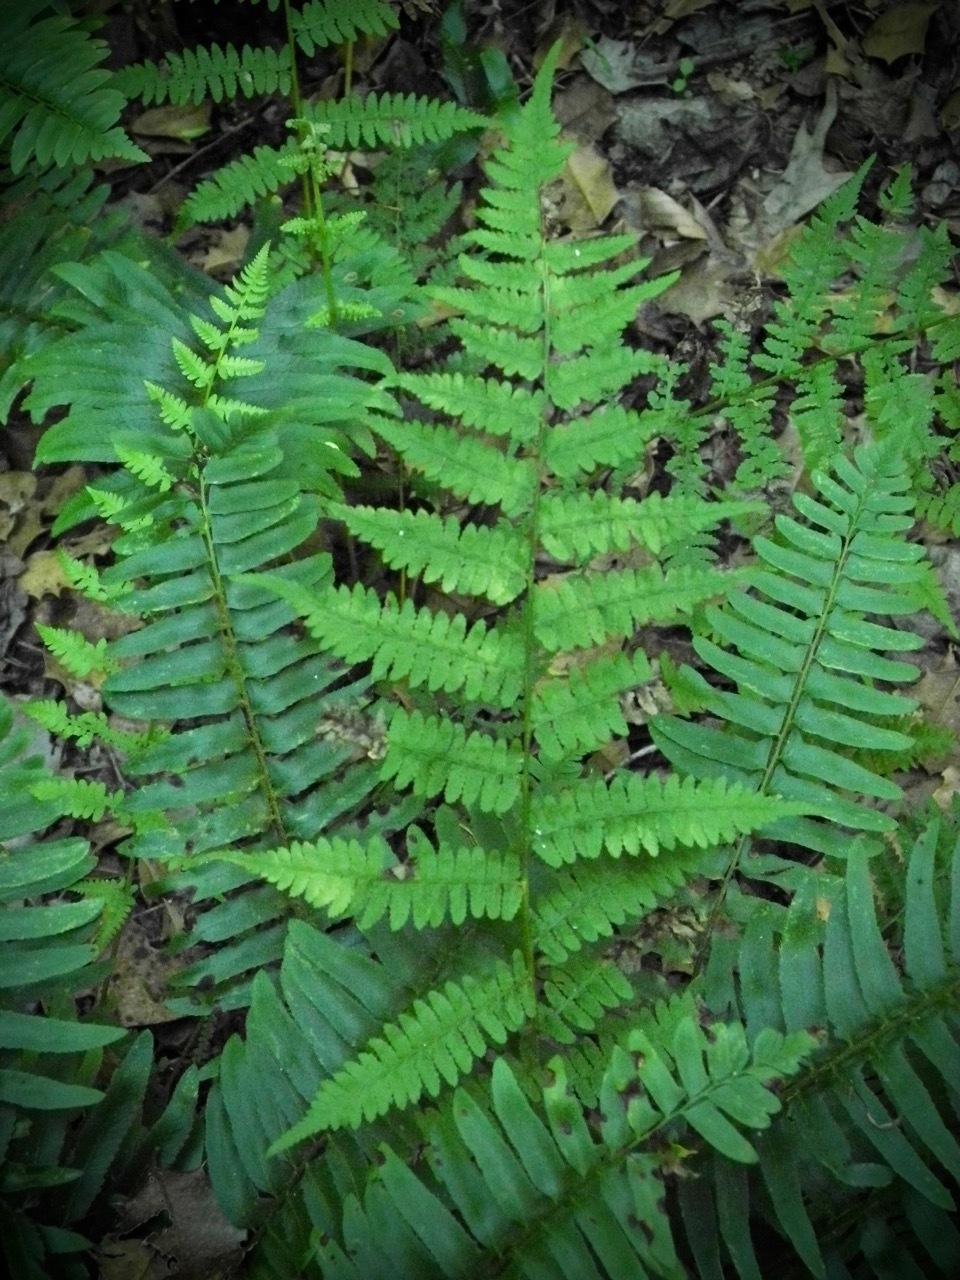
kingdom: Plantae
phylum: Tracheophyta
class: Polypodiopsida
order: Polypodiales
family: Athyriaceae
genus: Athyrium
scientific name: Athyrium asplenioides
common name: Southern lady fern
